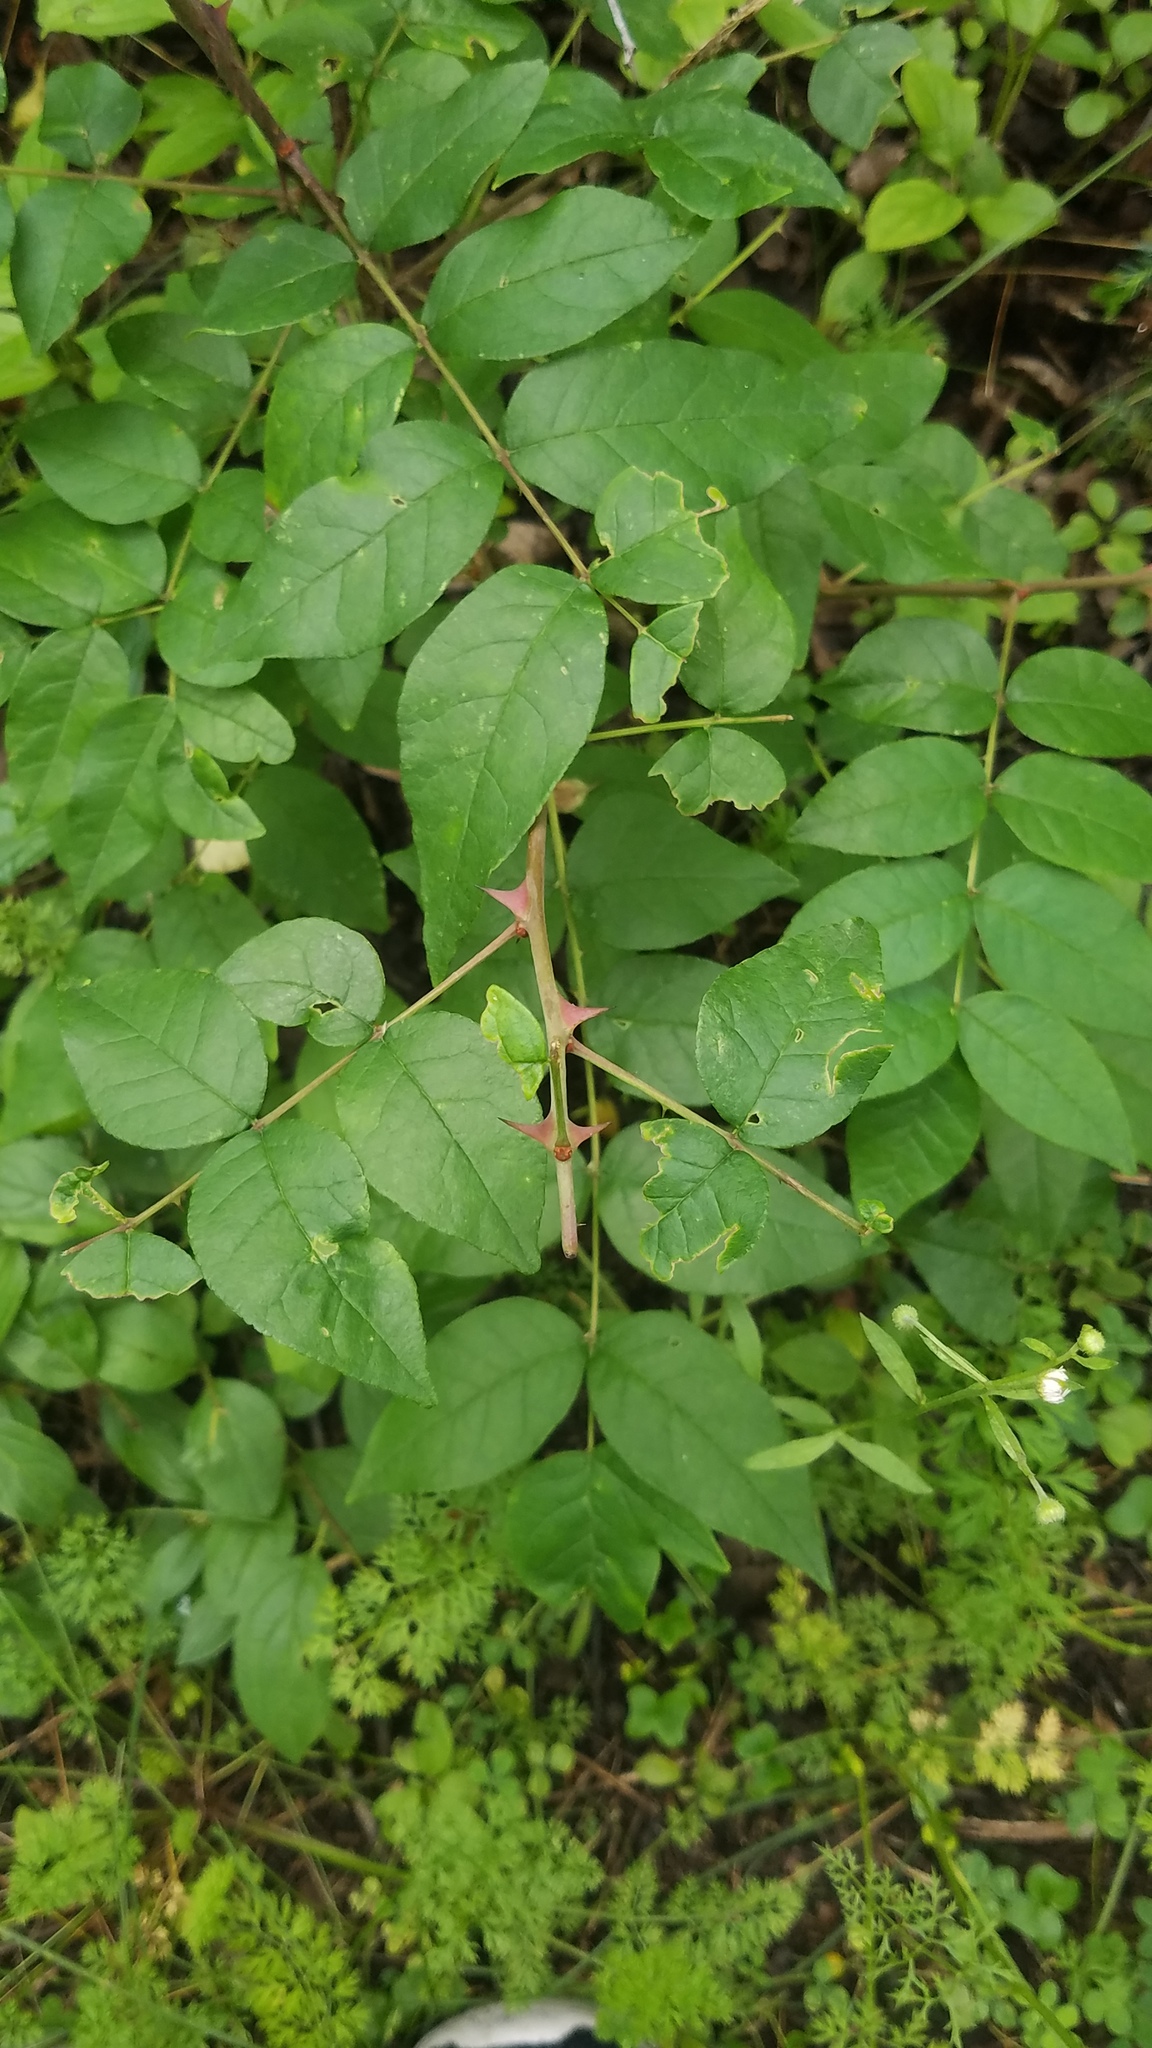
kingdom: Plantae
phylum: Tracheophyta
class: Magnoliopsida
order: Sapindales
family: Rutaceae
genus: Zanthoxylum
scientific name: Zanthoxylum americanum
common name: Northern prickly-ash
